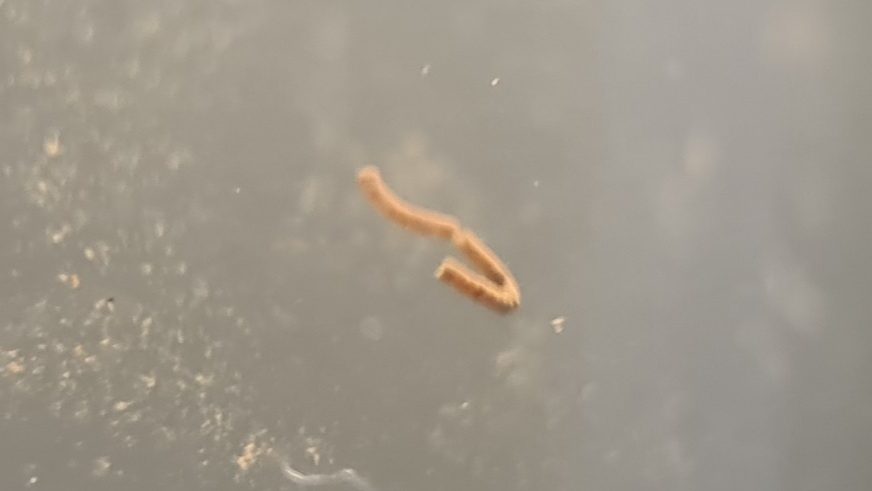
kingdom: Animalia
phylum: Chordata
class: Amphibia
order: Anura
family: Bufonidae
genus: Rhinella
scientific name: Rhinella marina
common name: Cane toad
